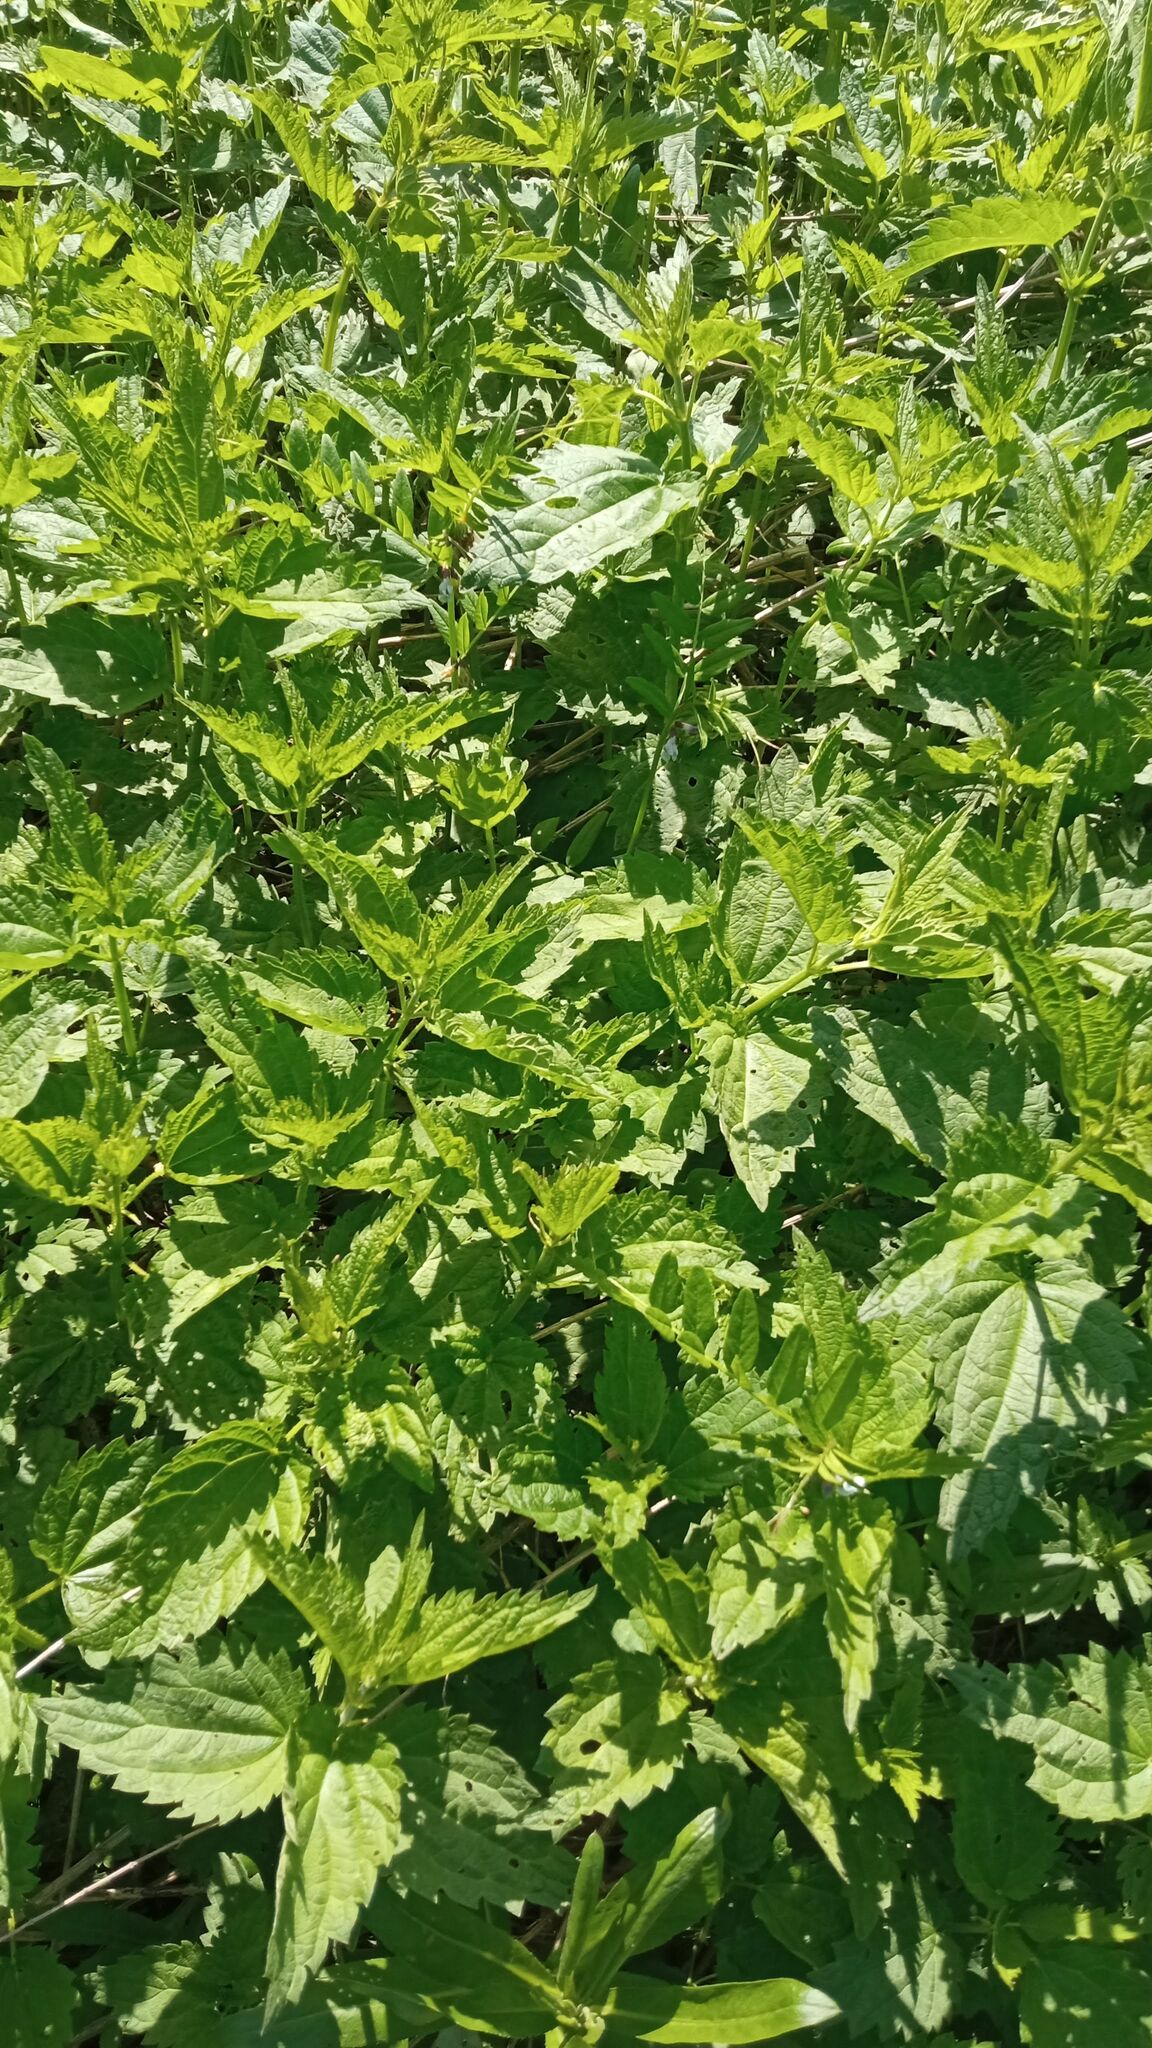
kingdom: Plantae
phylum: Tracheophyta
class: Magnoliopsida
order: Rosales
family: Urticaceae
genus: Urtica
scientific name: Urtica dioica
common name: Common nettle
